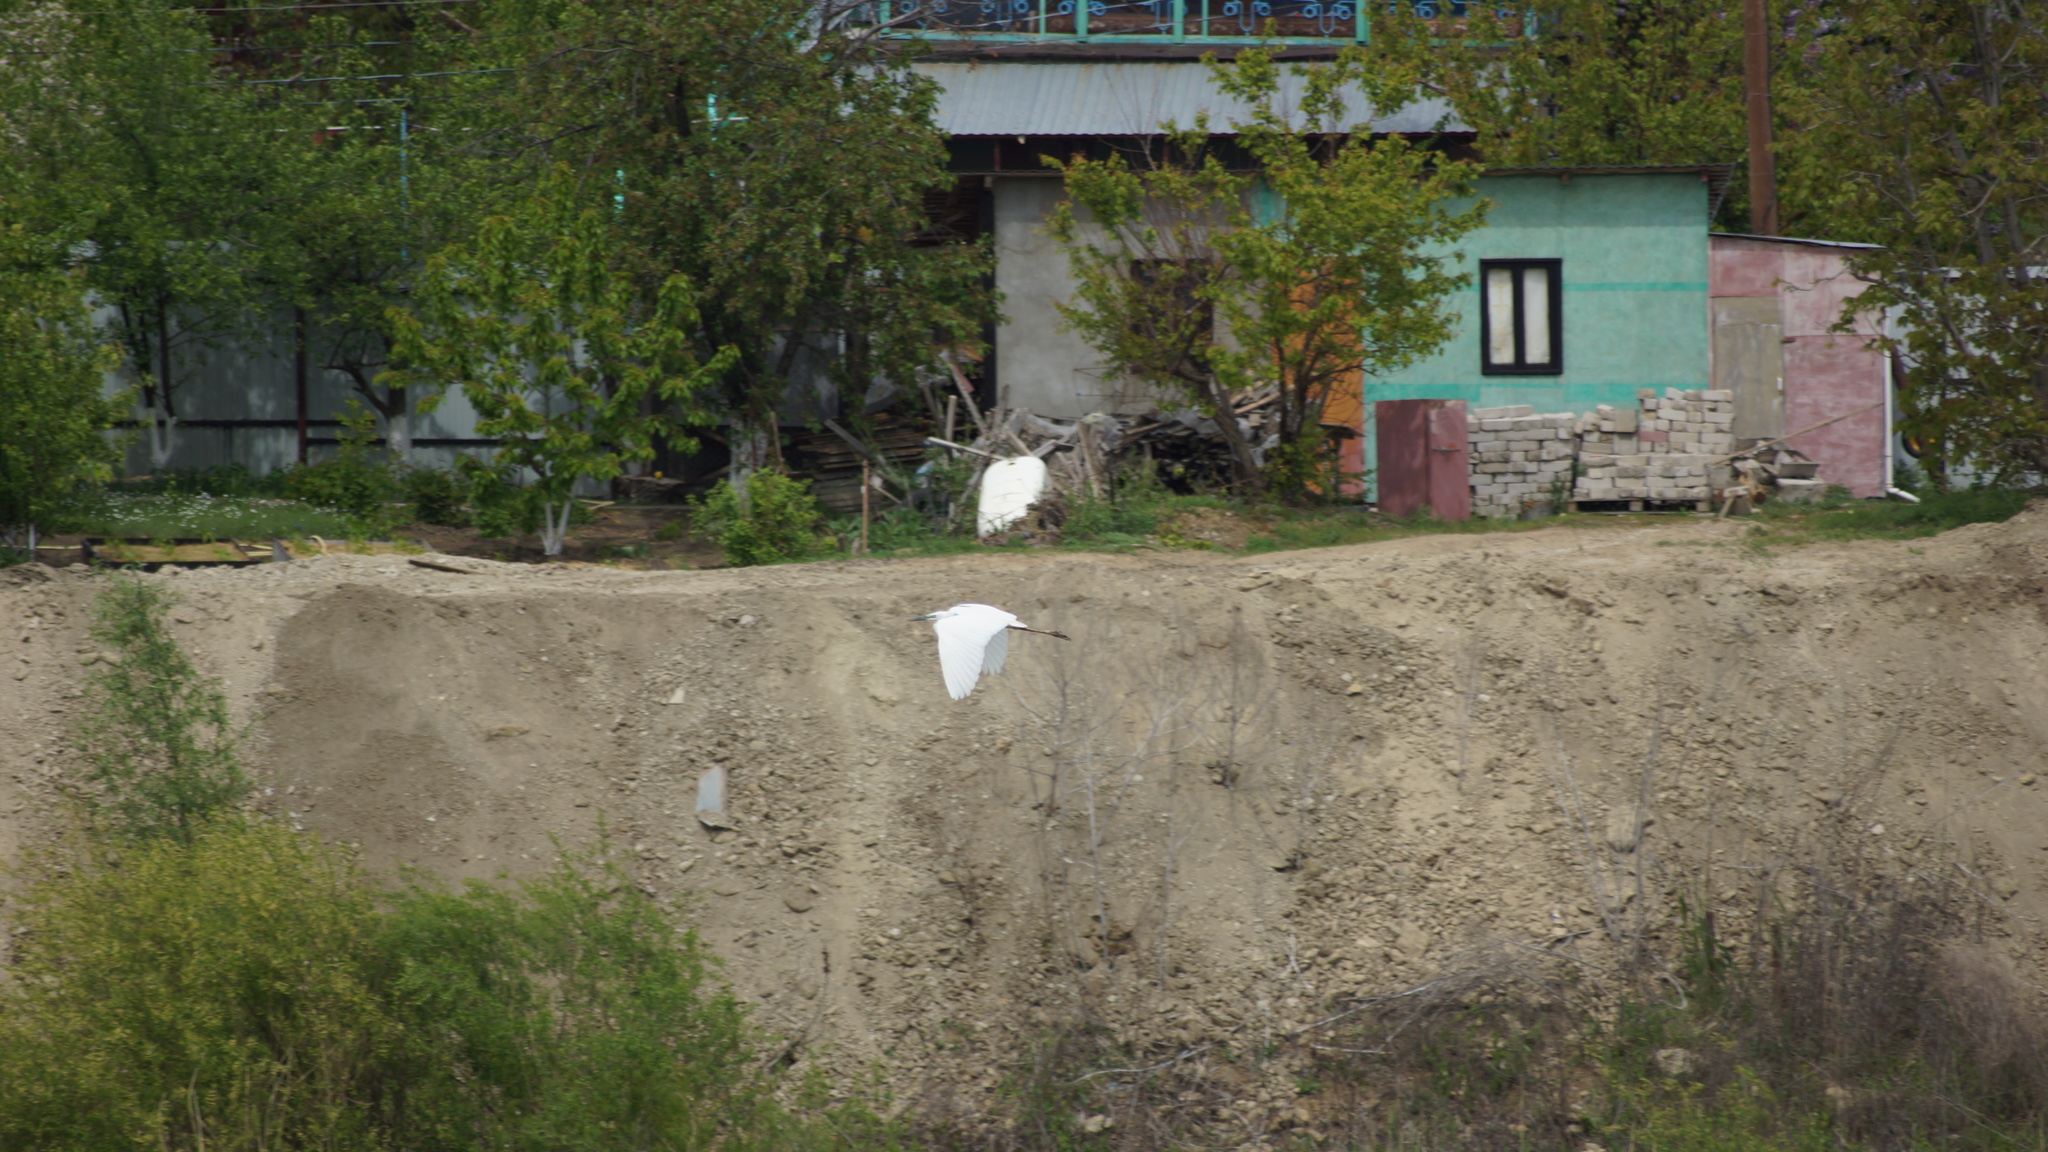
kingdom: Animalia
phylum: Chordata
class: Aves
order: Pelecaniformes
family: Ardeidae
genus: Egretta
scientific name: Egretta garzetta
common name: Little egret
